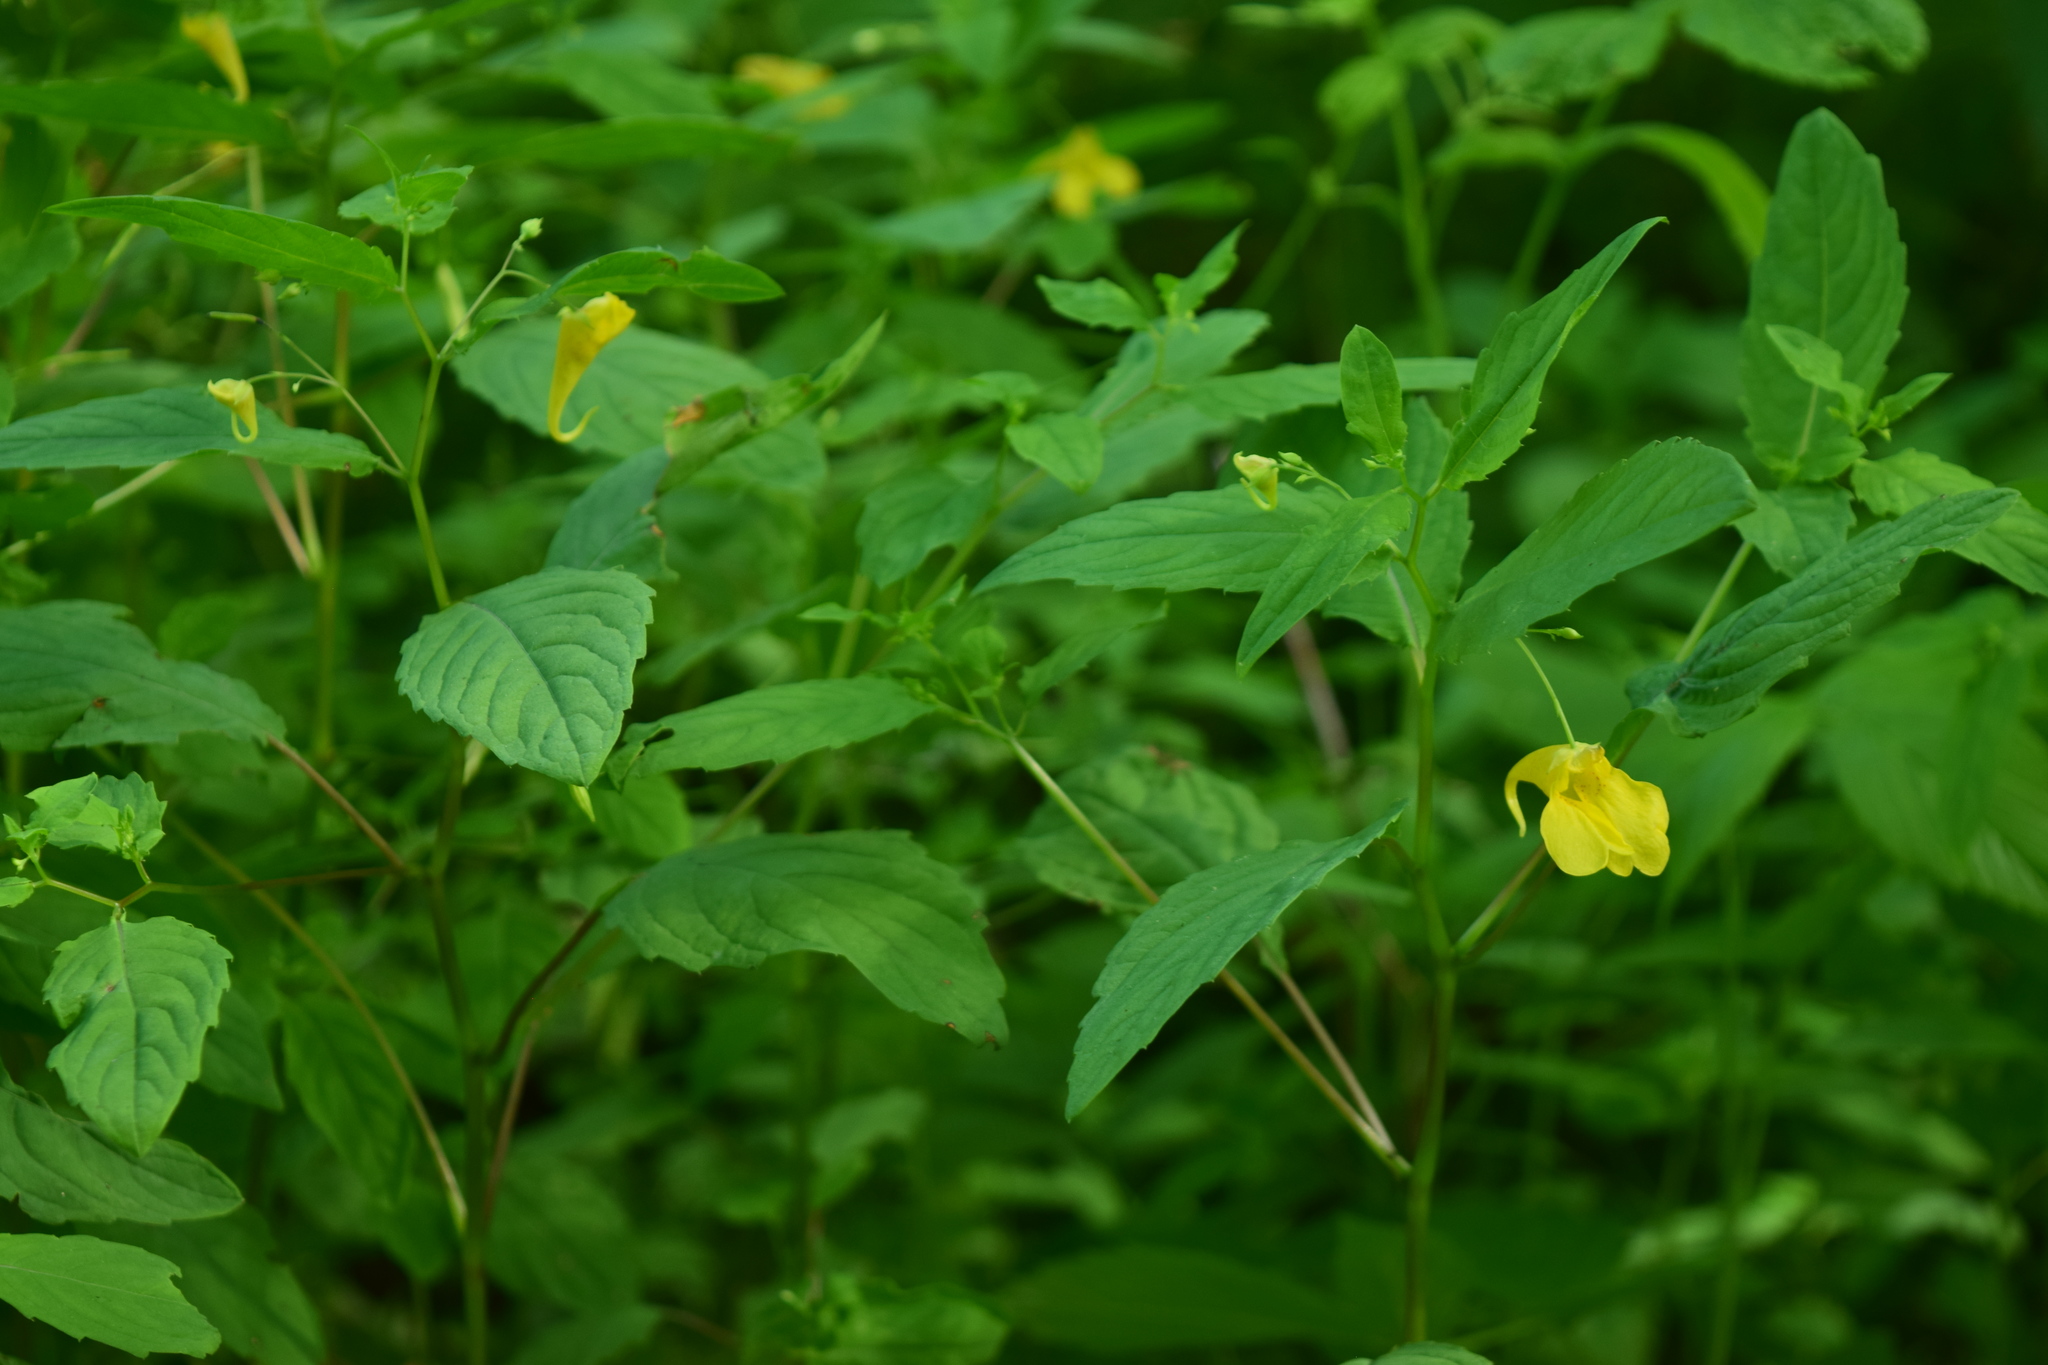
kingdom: Plantae
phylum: Tracheophyta
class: Magnoliopsida
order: Ericales
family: Balsaminaceae
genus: Impatiens
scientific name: Impatiens noli-tangere
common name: Touch-me-not balsam
